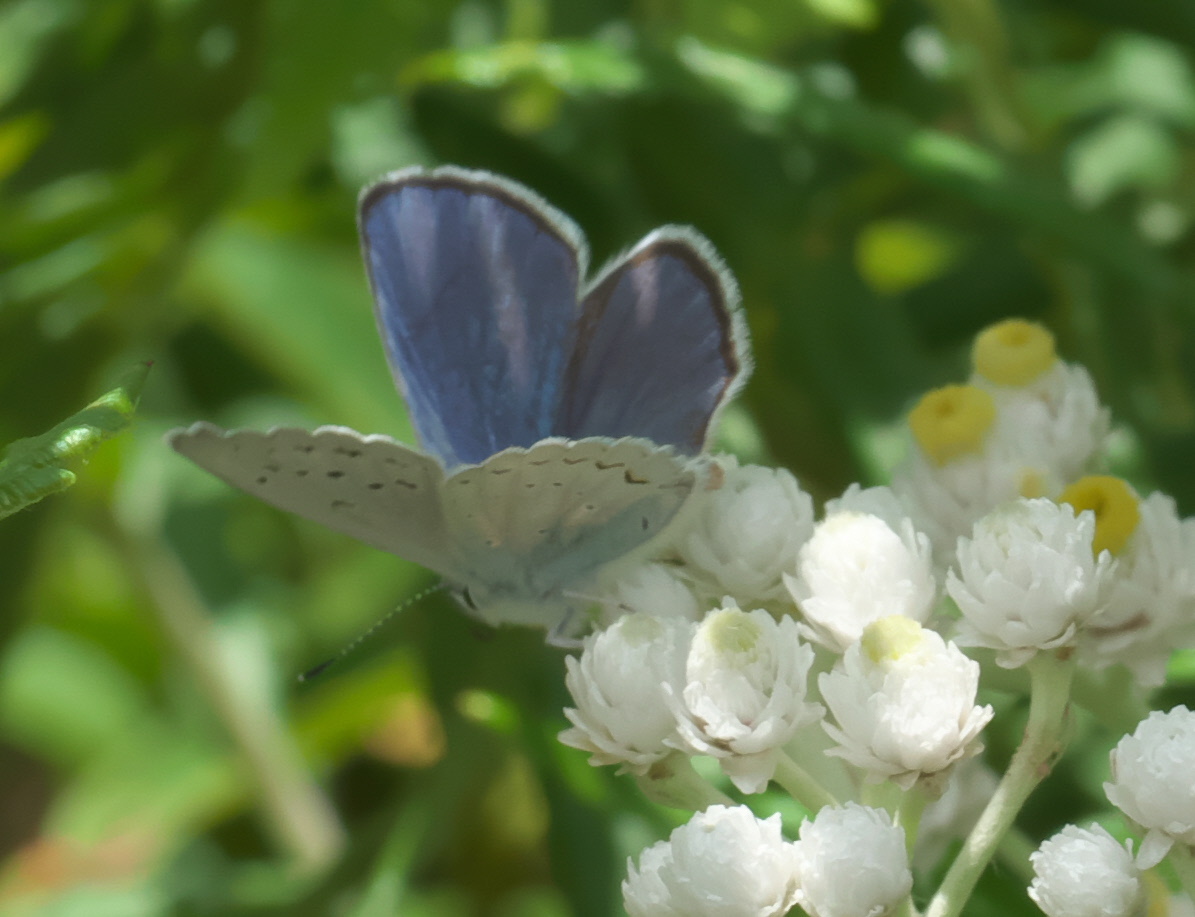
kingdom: Animalia
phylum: Arthropoda
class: Insecta
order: Lepidoptera
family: Lycaenidae
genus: Lycaeides
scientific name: Lycaeides anna
